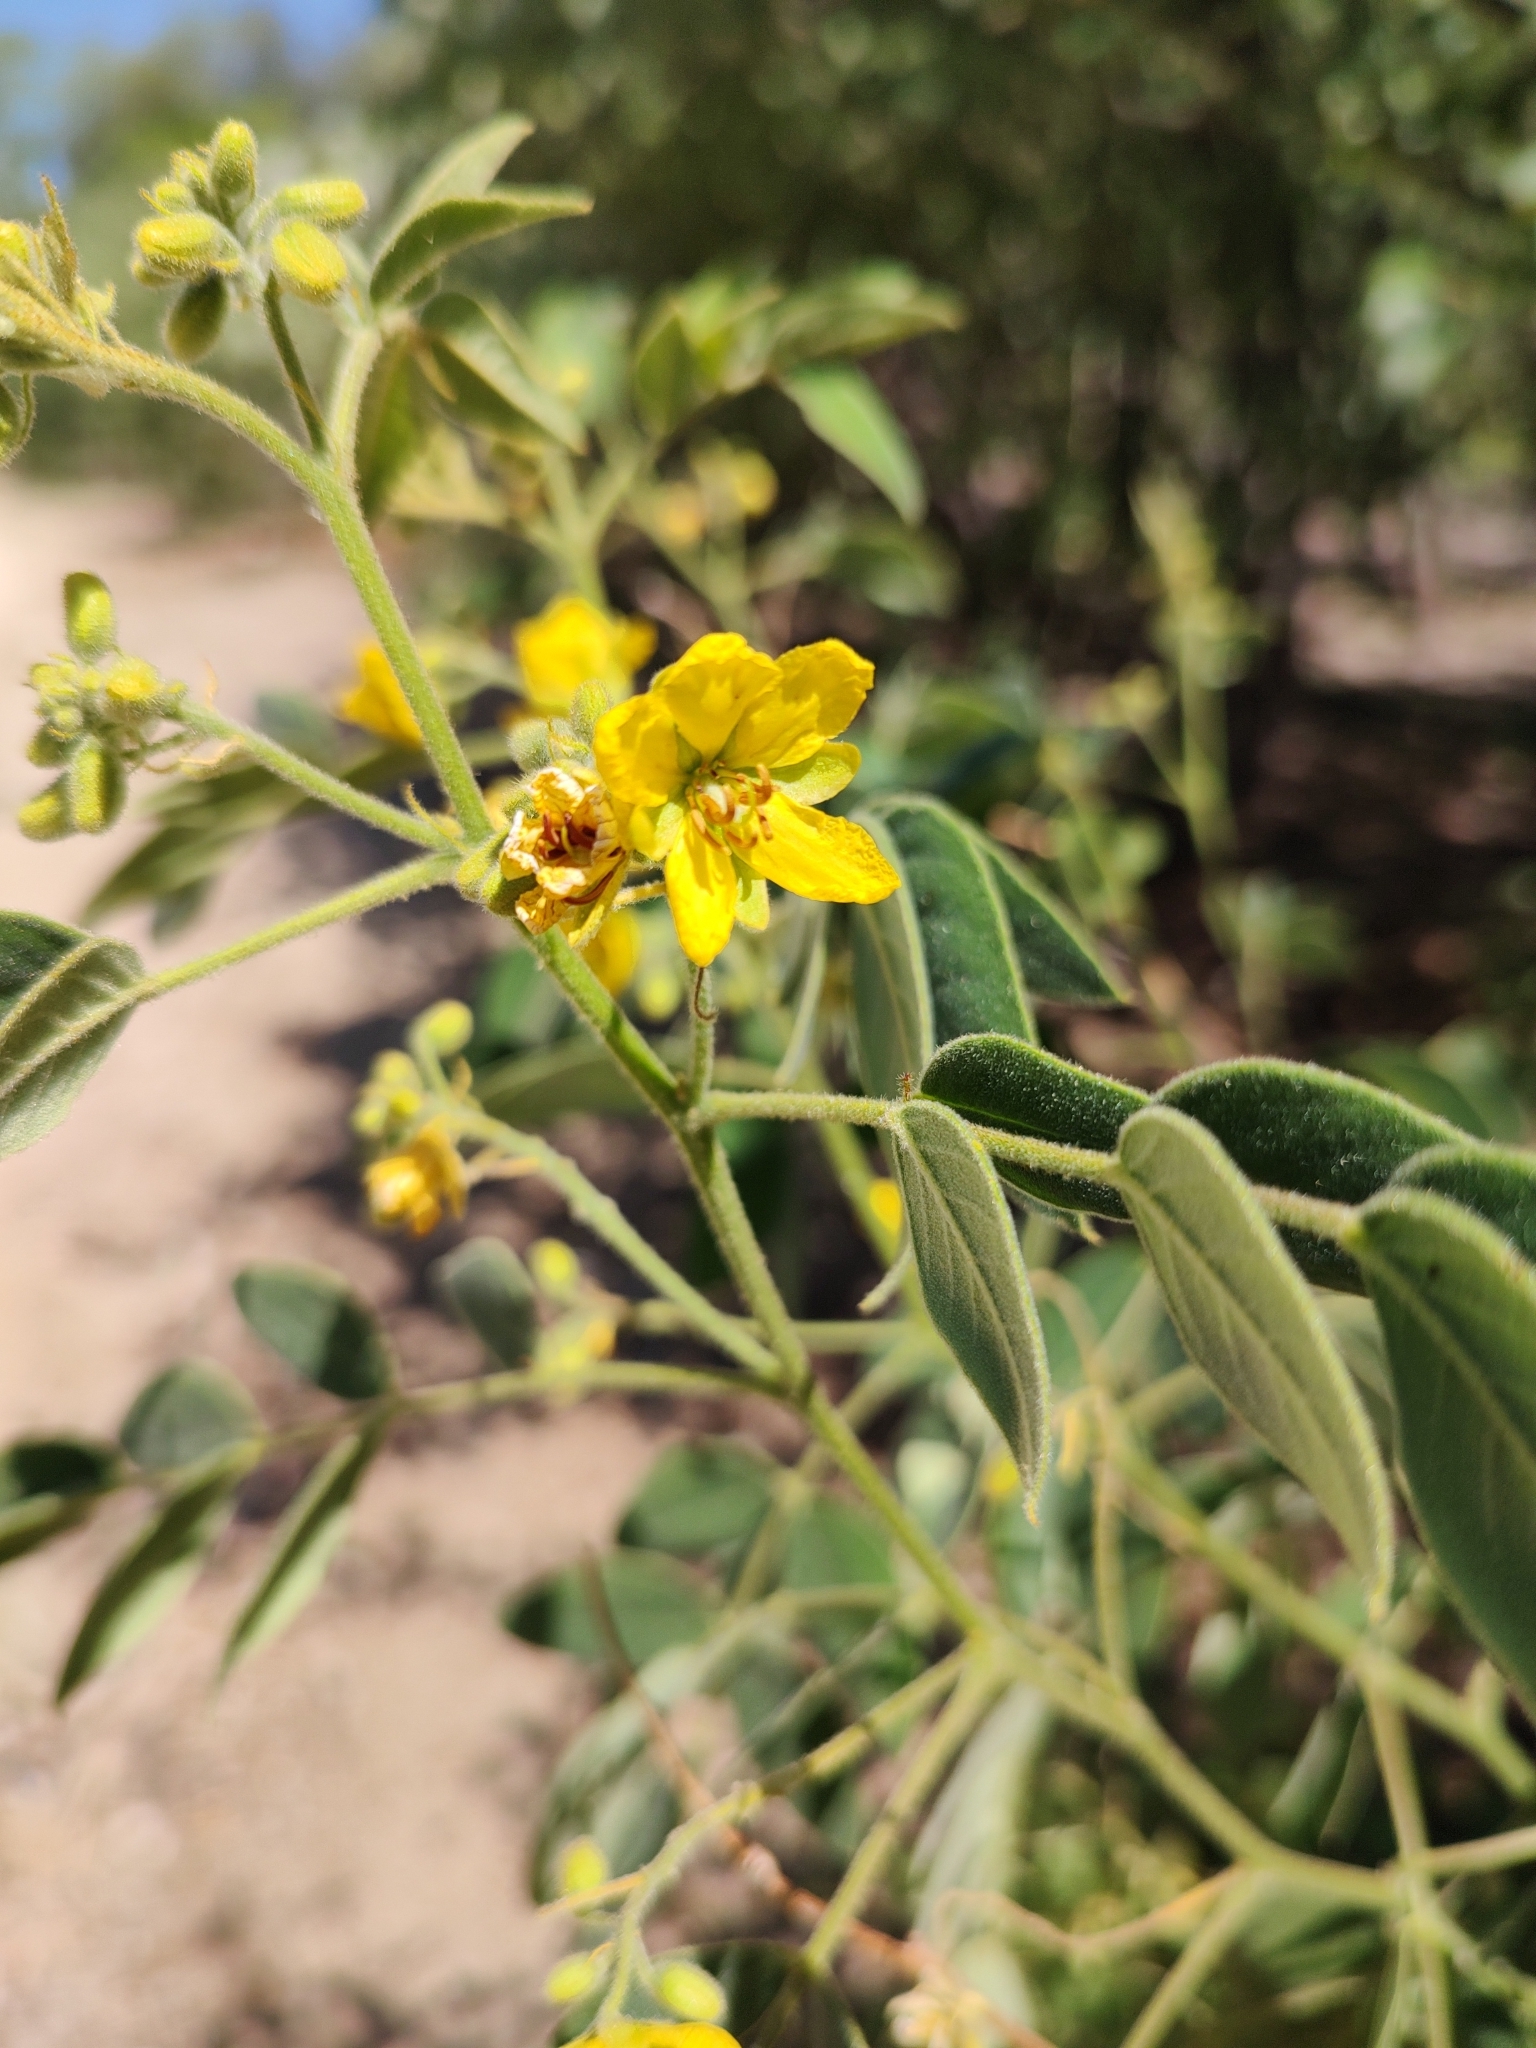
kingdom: Plantae
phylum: Tracheophyta
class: Magnoliopsida
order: Fabales
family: Fabaceae
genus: Senna
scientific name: Senna villosa
